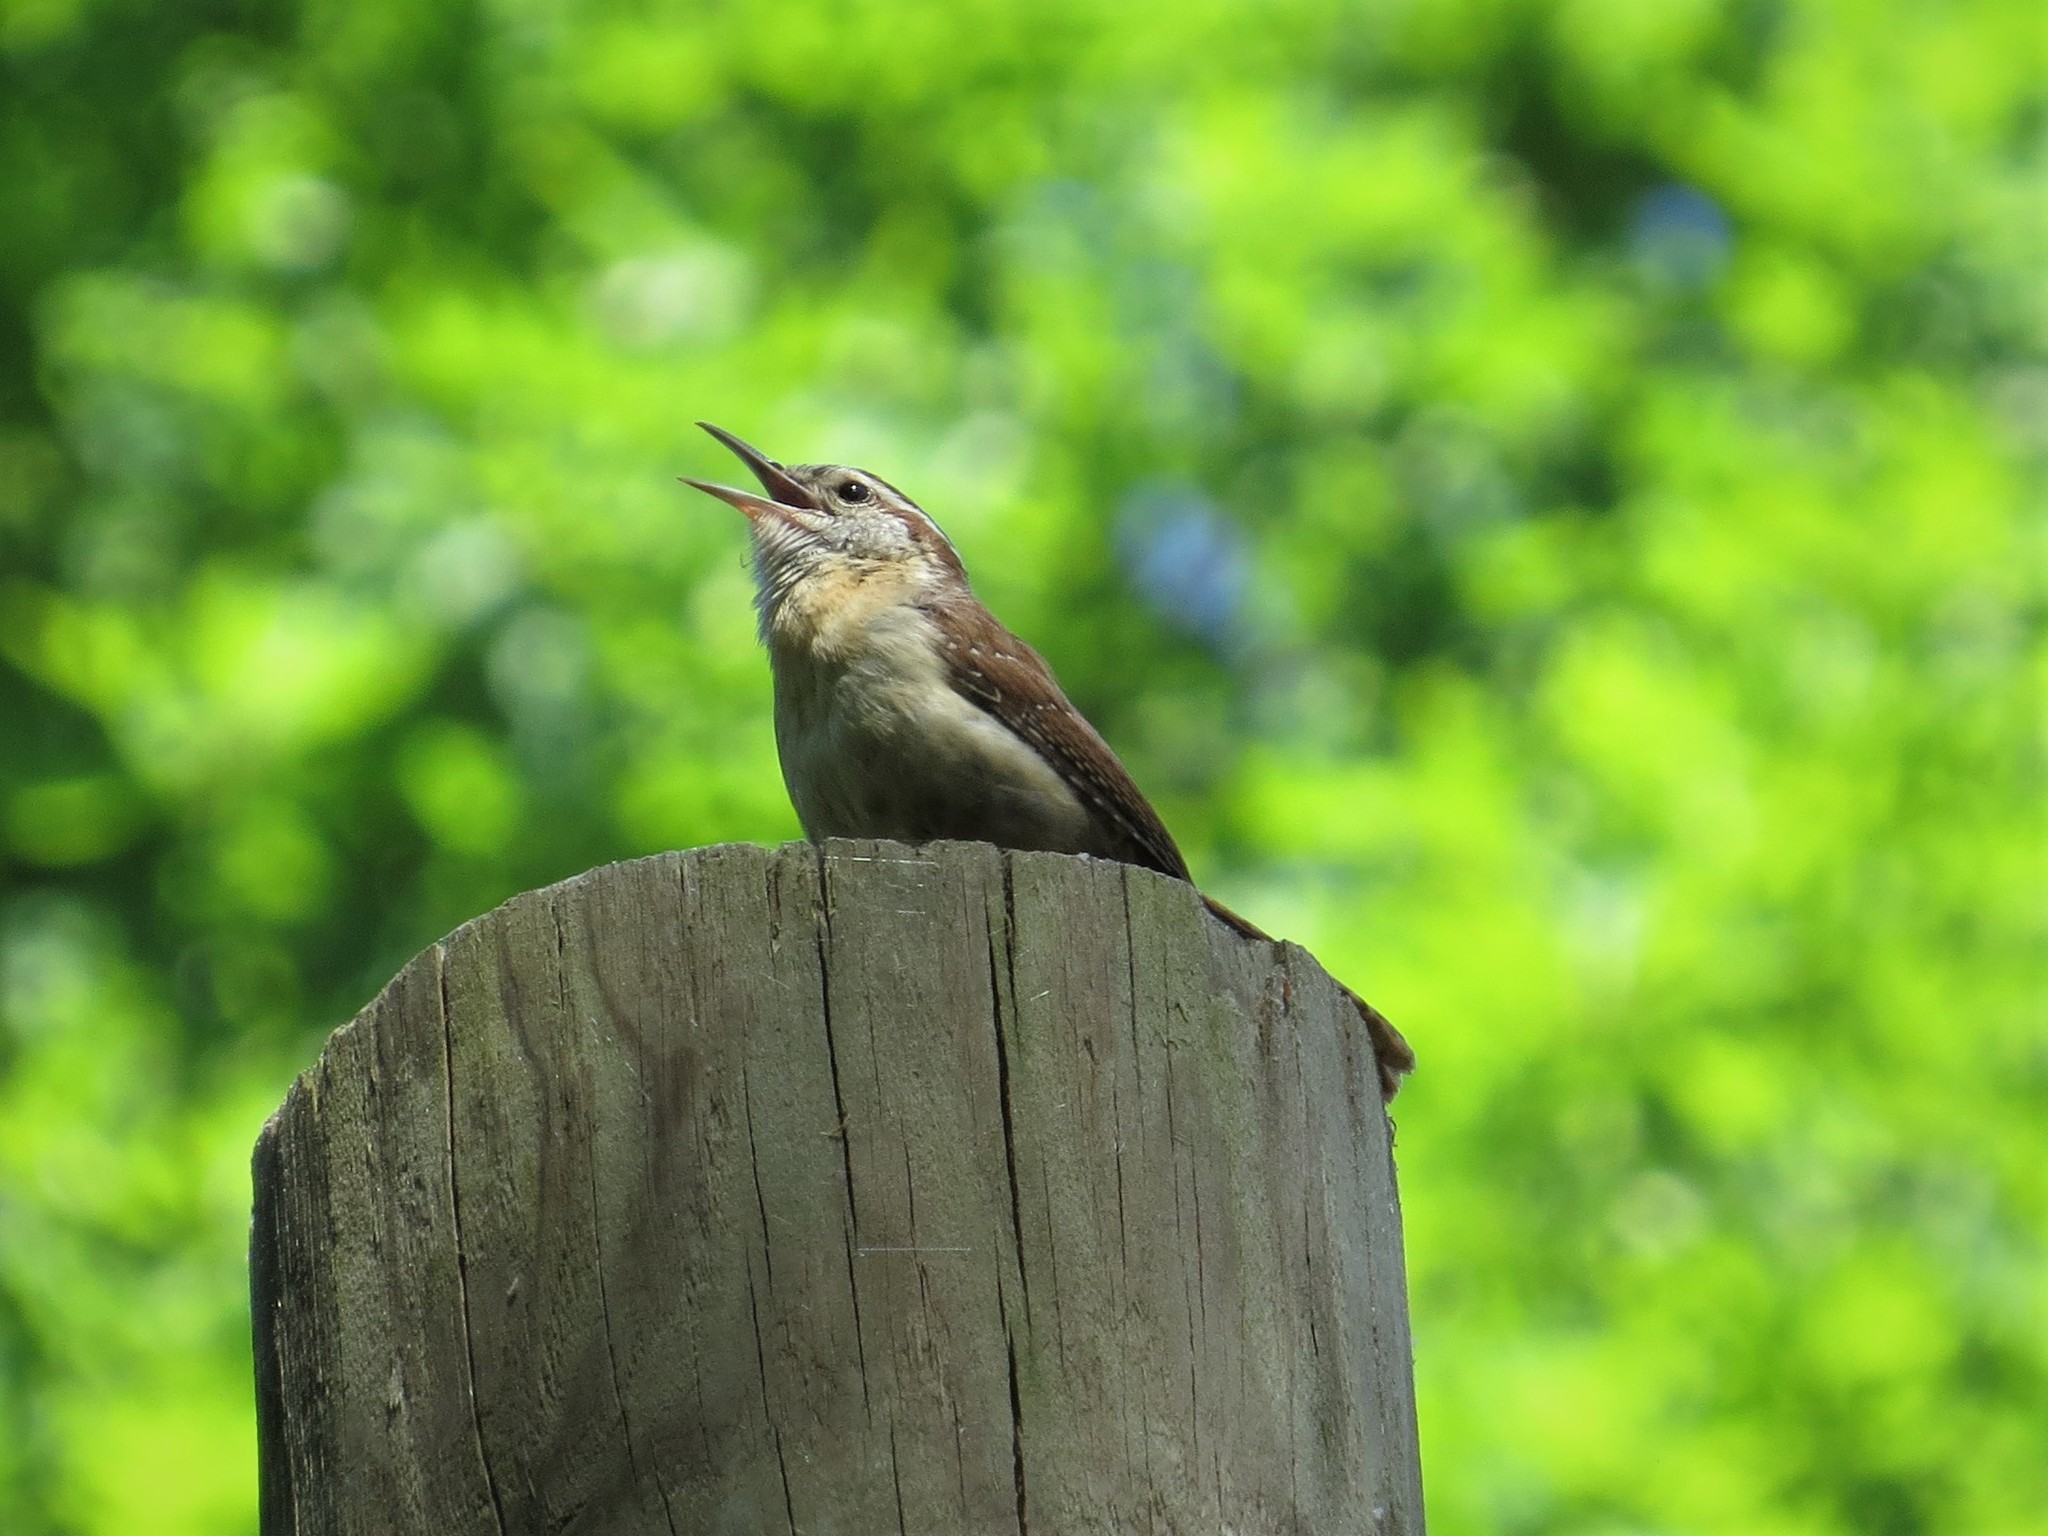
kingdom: Animalia
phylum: Chordata
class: Aves
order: Passeriformes
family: Troglodytidae
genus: Thryothorus
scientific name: Thryothorus ludovicianus
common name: Carolina wren
